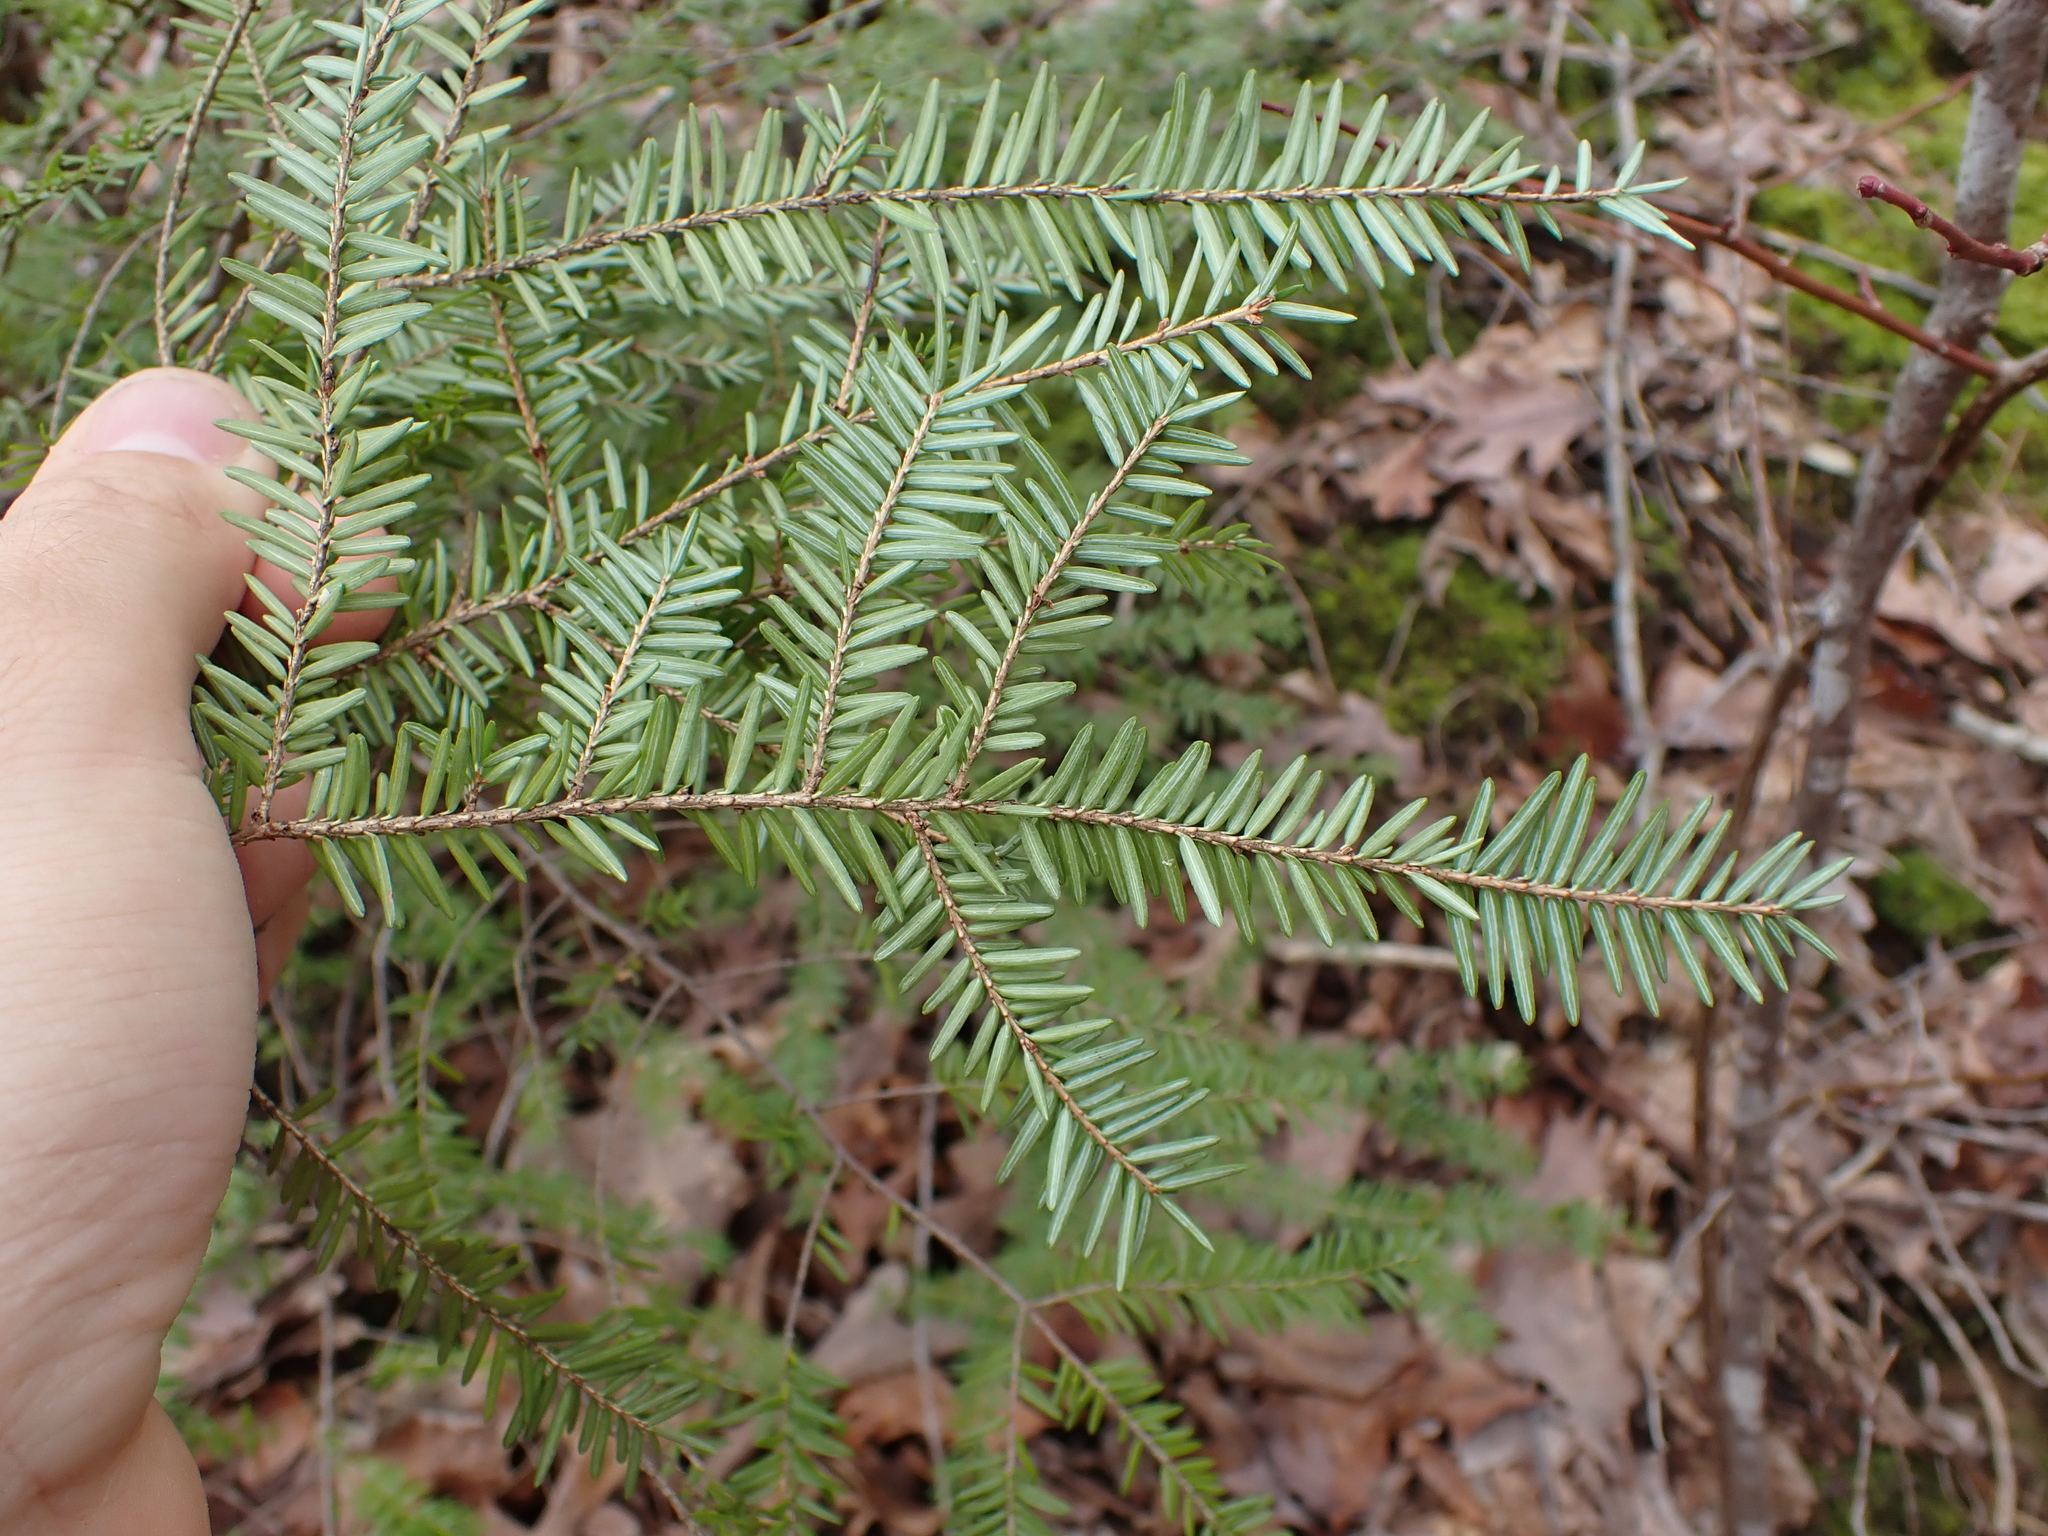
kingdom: Plantae
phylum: Tracheophyta
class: Pinopsida
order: Pinales
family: Pinaceae
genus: Tsuga
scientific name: Tsuga canadensis
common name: Eastern hemlock
